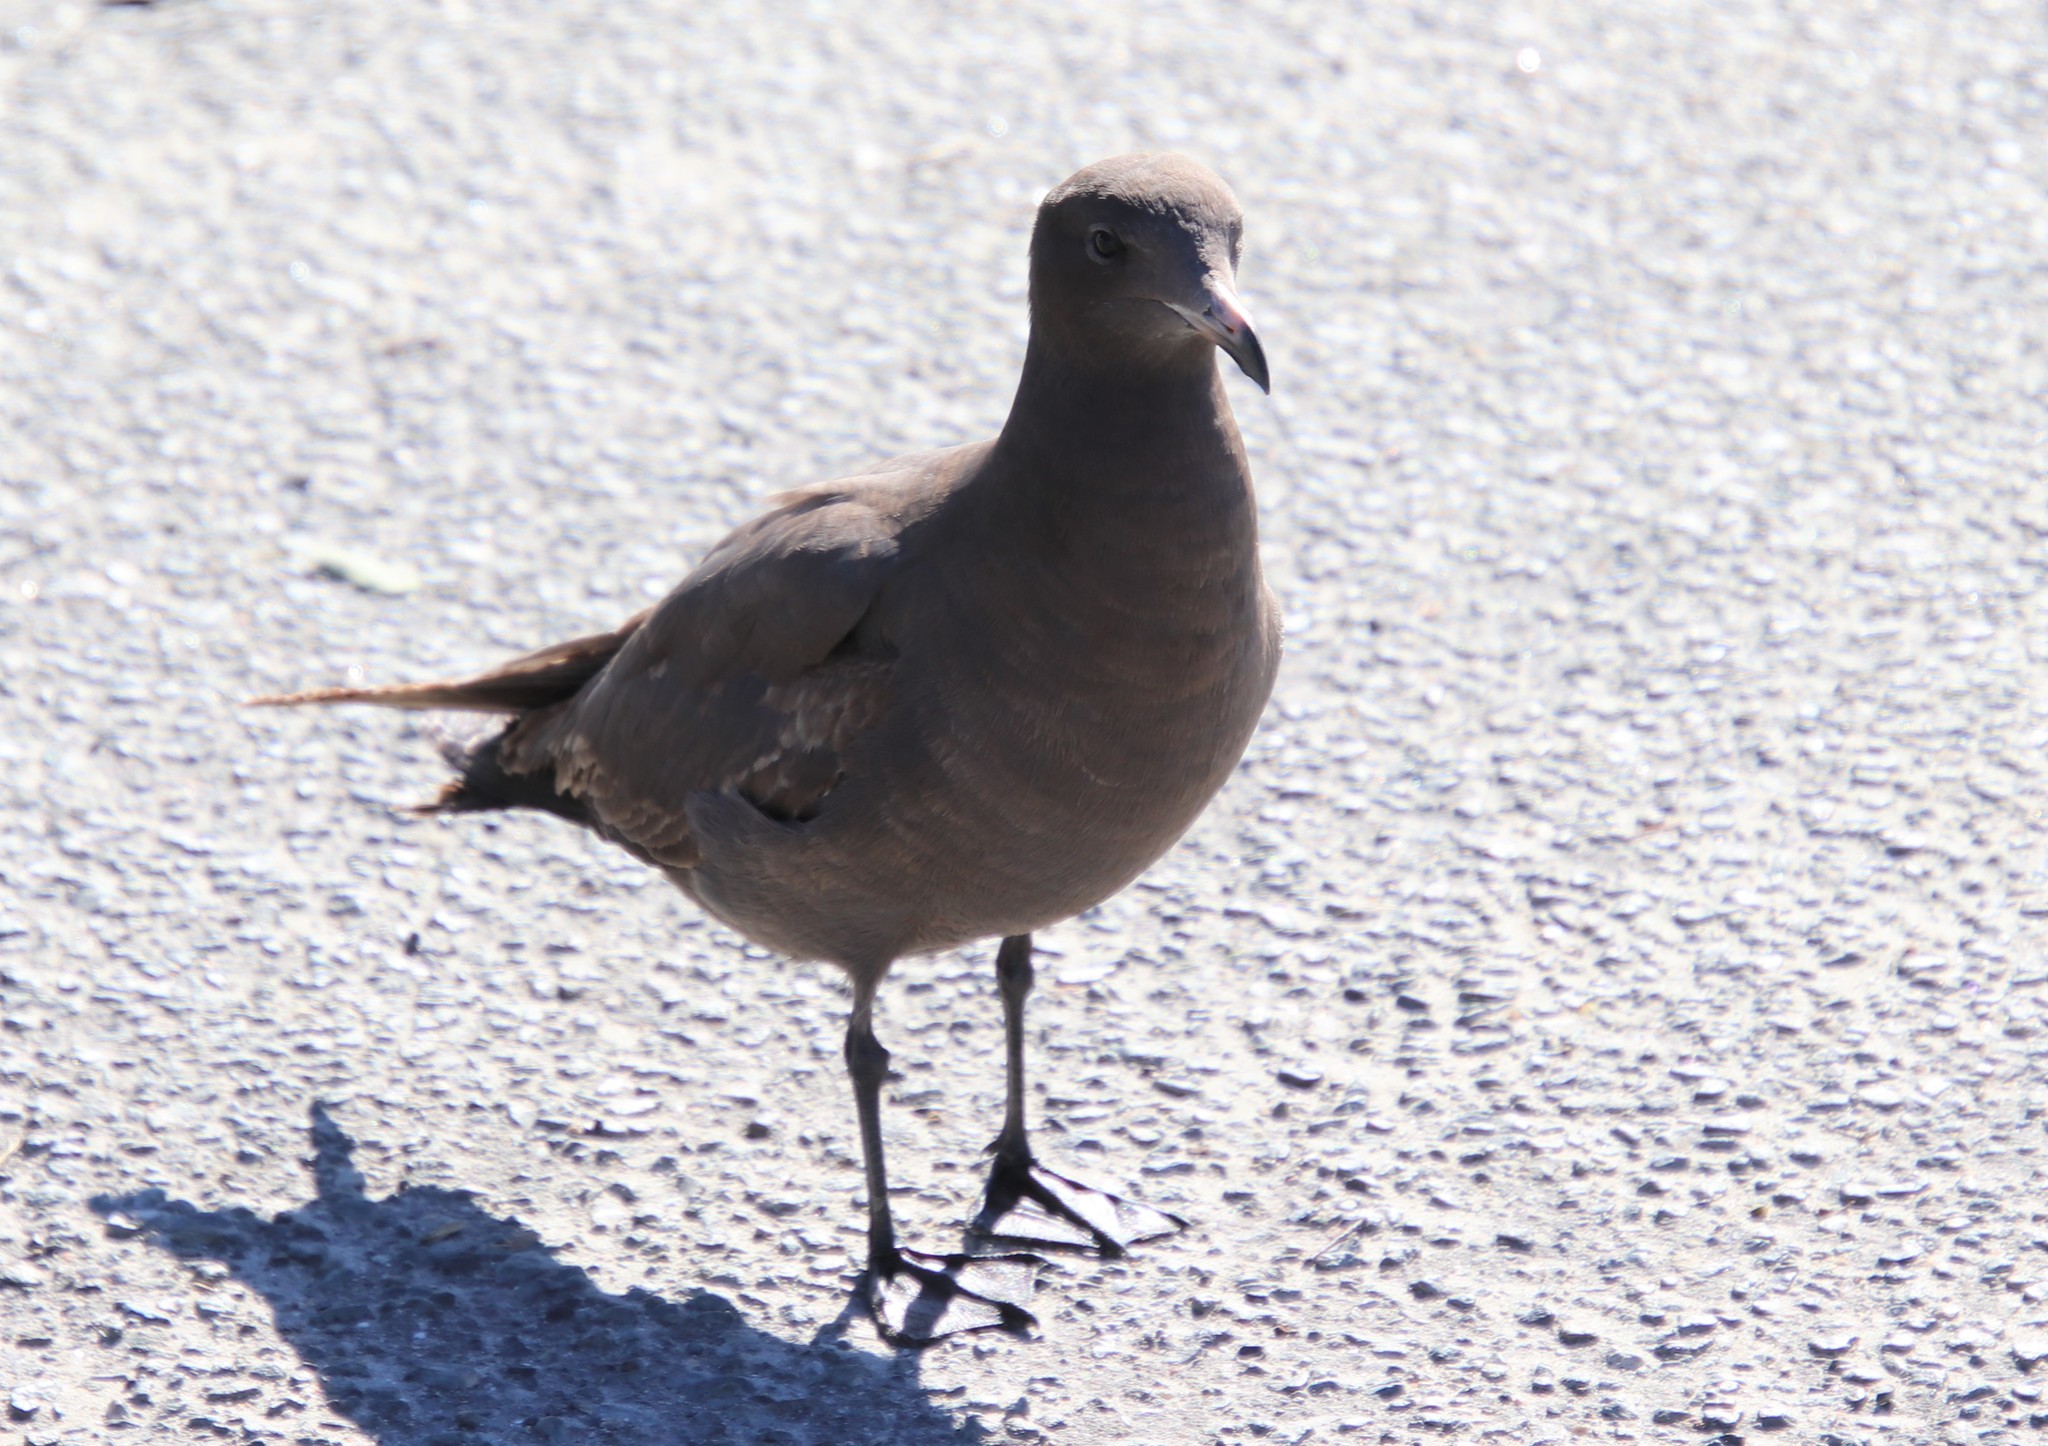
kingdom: Animalia
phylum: Chordata
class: Aves
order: Charadriiformes
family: Laridae
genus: Larus
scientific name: Larus heermanni
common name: Heermann's gull
